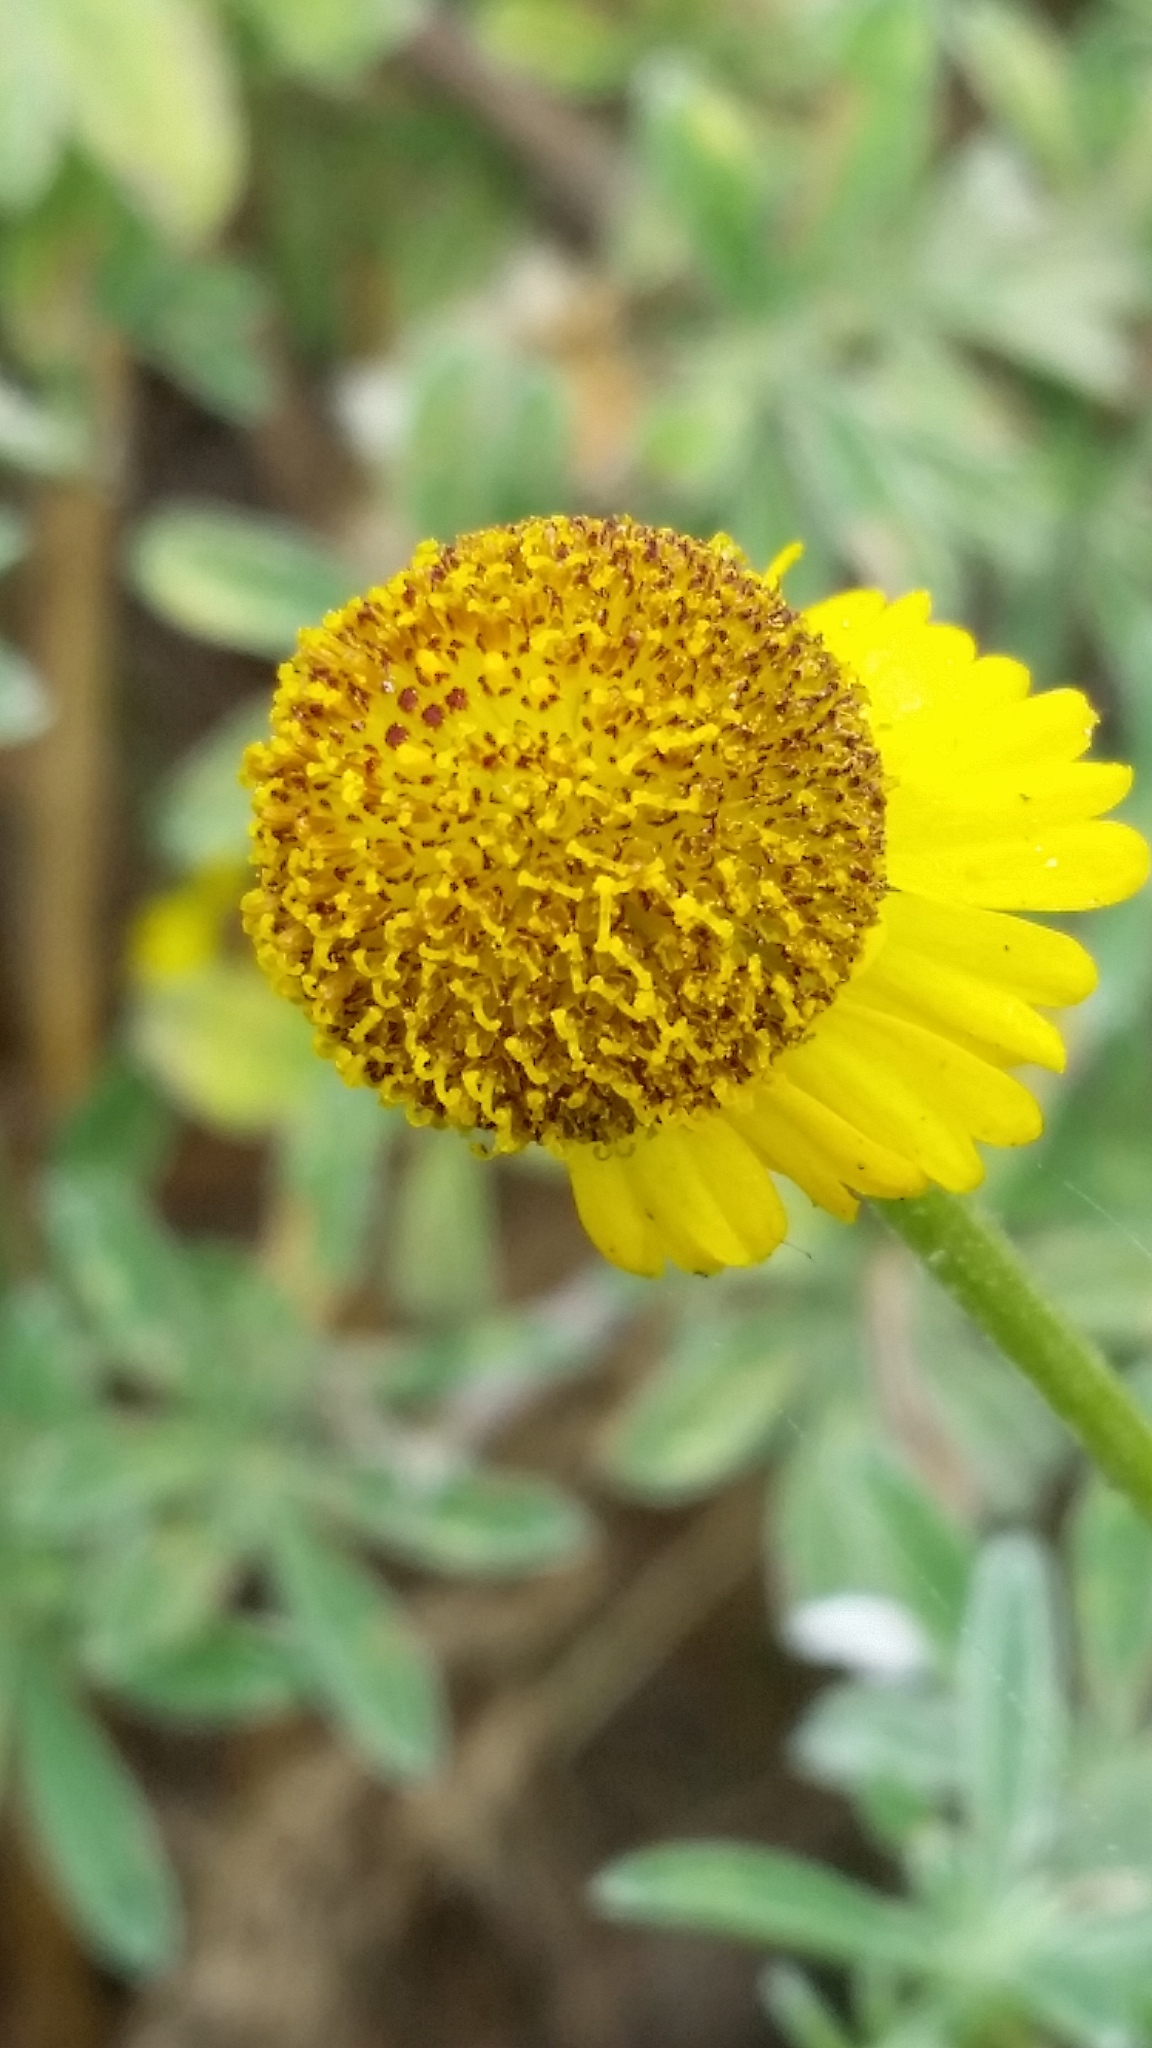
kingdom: Plantae
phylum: Tracheophyta
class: Magnoliopsida
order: Asterales
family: Asteraceae
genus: Helenium
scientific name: Helenium puberulum
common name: Sneezewort
